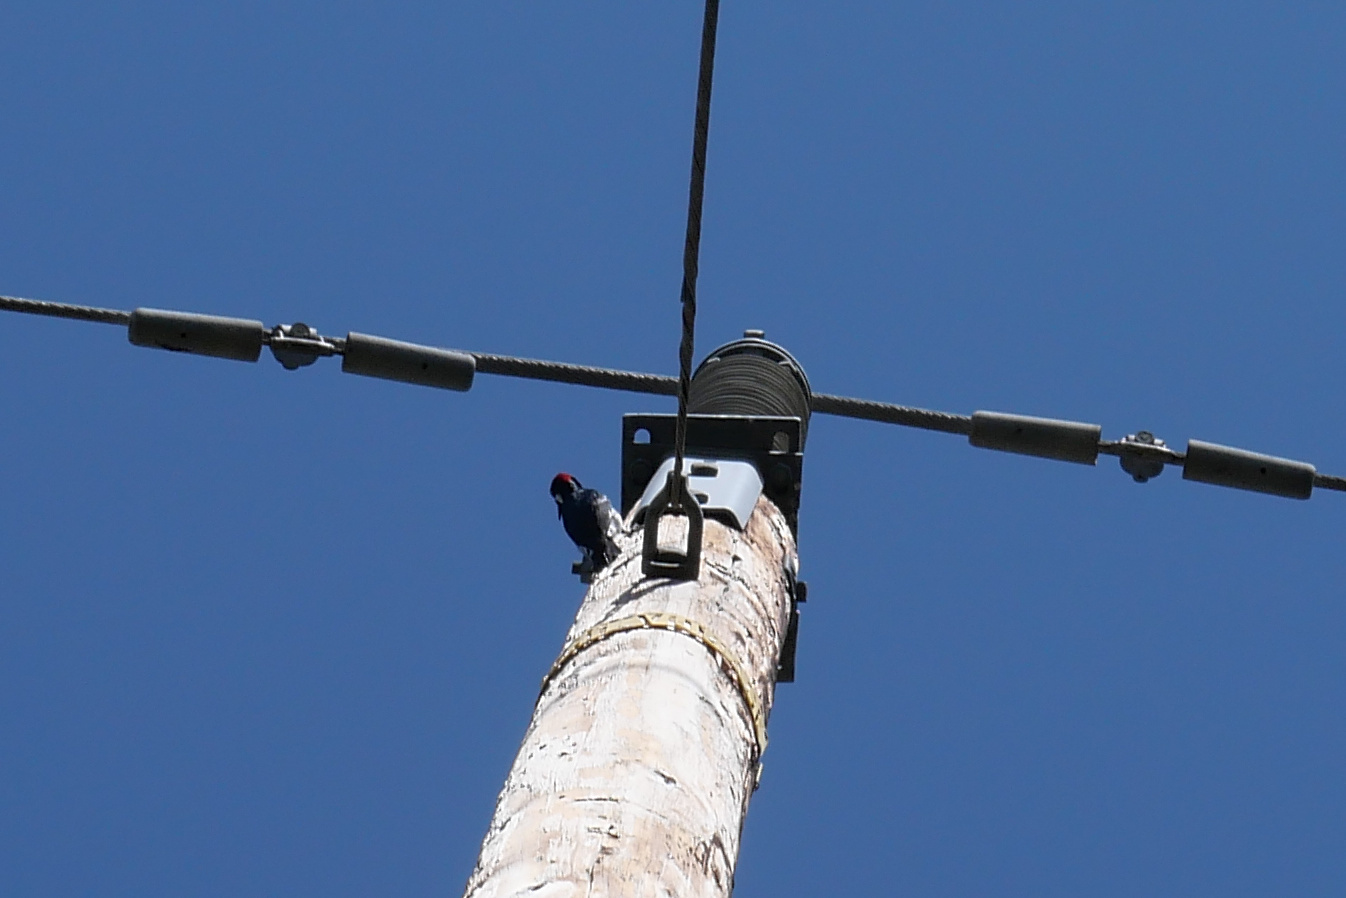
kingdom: Animalia
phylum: Chordata
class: Aves
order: Piciformes
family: Picidae
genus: Melanerpes
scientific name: Melanerpes formicivorus
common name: Acorn woodpecker
